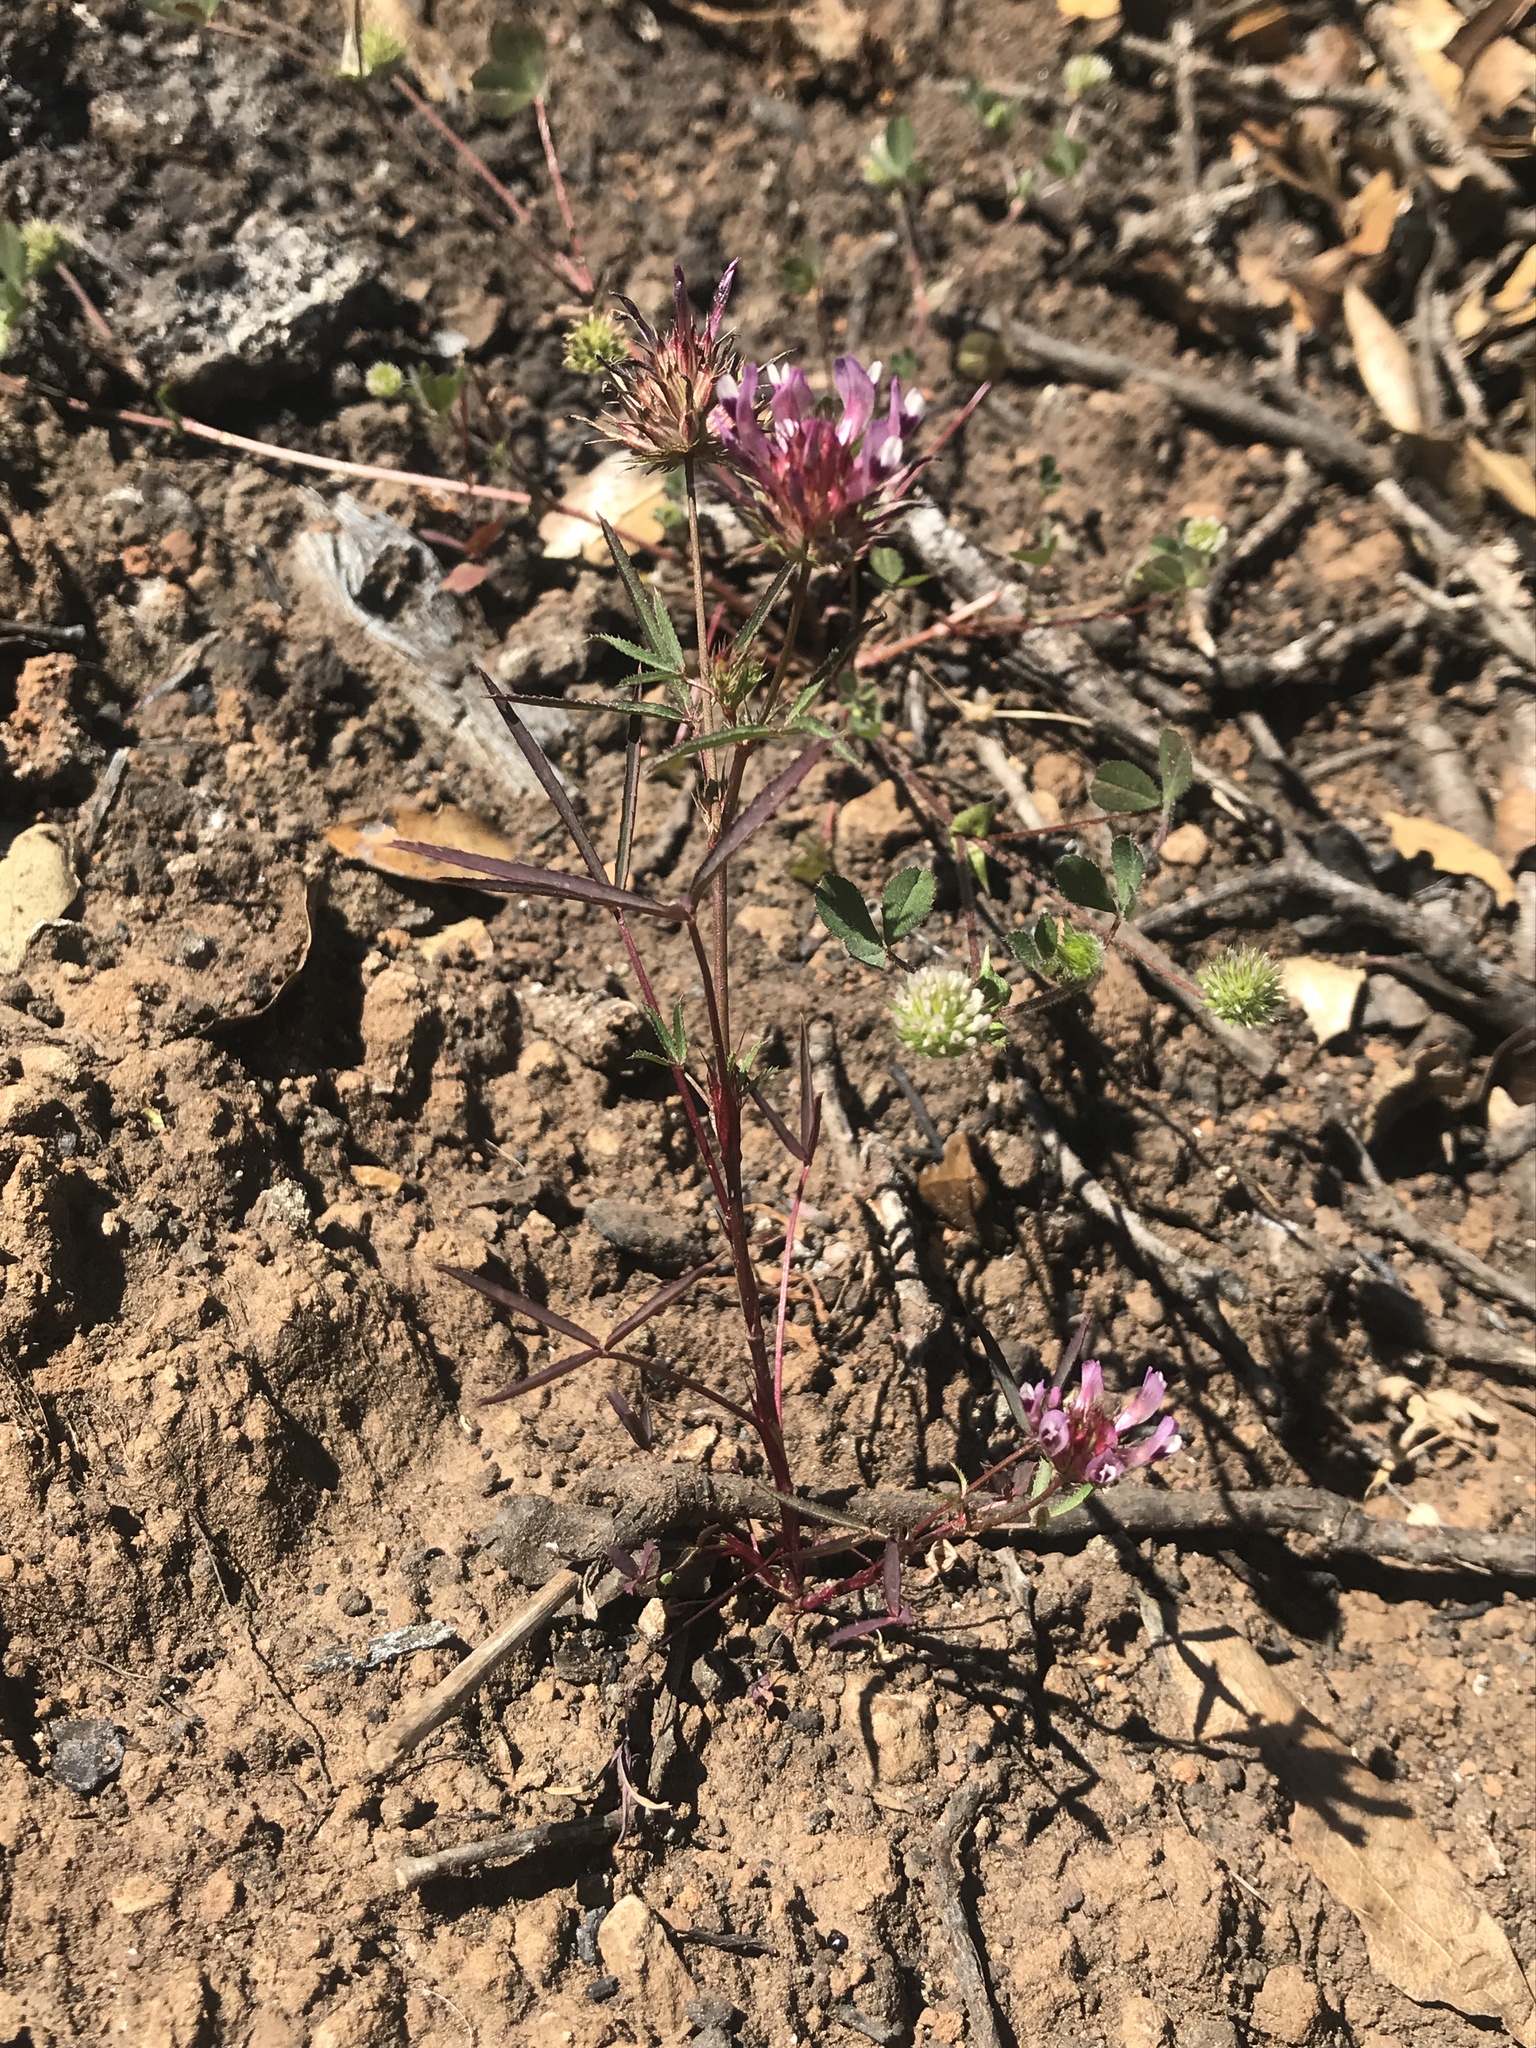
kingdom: Plantae
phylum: Tracheophyta
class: Magnoliopsida
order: Fabales
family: Fabaceae
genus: Trifolium
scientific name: Trifolium willdenovii
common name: Tomcat clover
